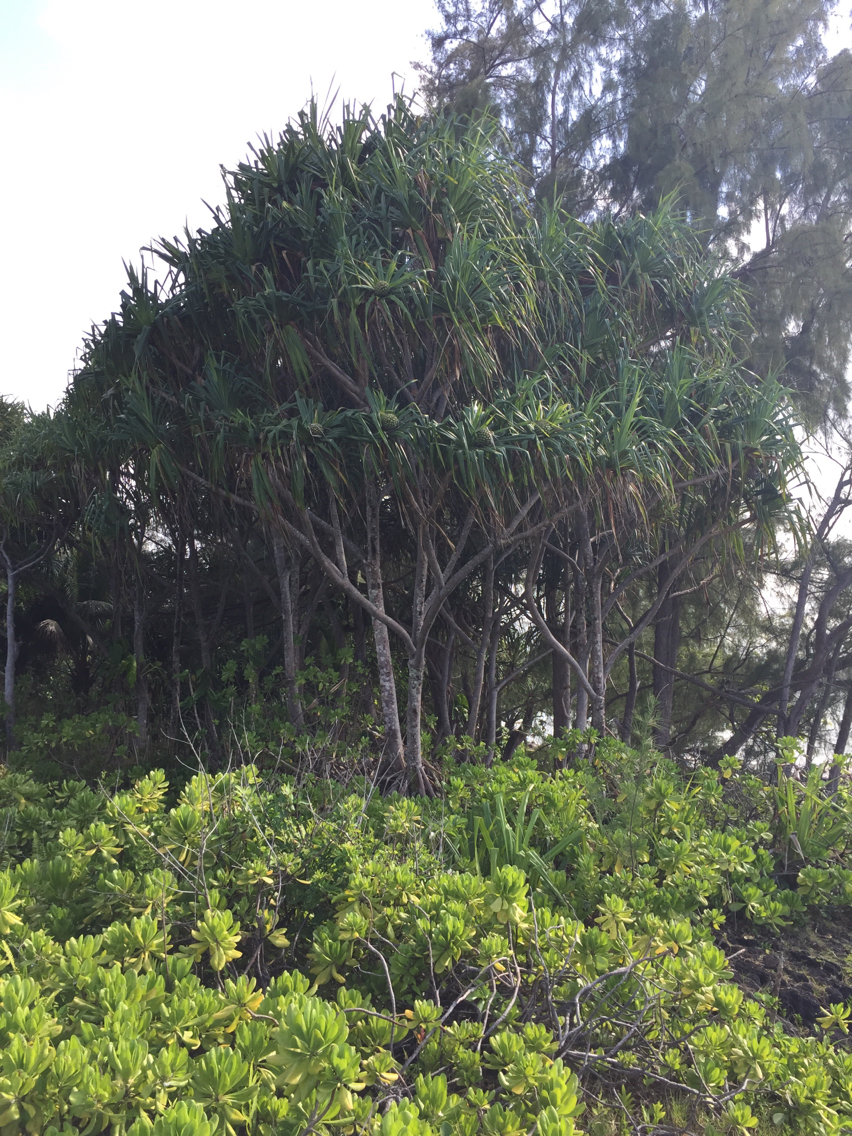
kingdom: Plantae
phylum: Tracheophyta
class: Liliopsida
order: Pandanales
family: Pandanaceae
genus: Pandanus
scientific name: Pandanus tectorius
